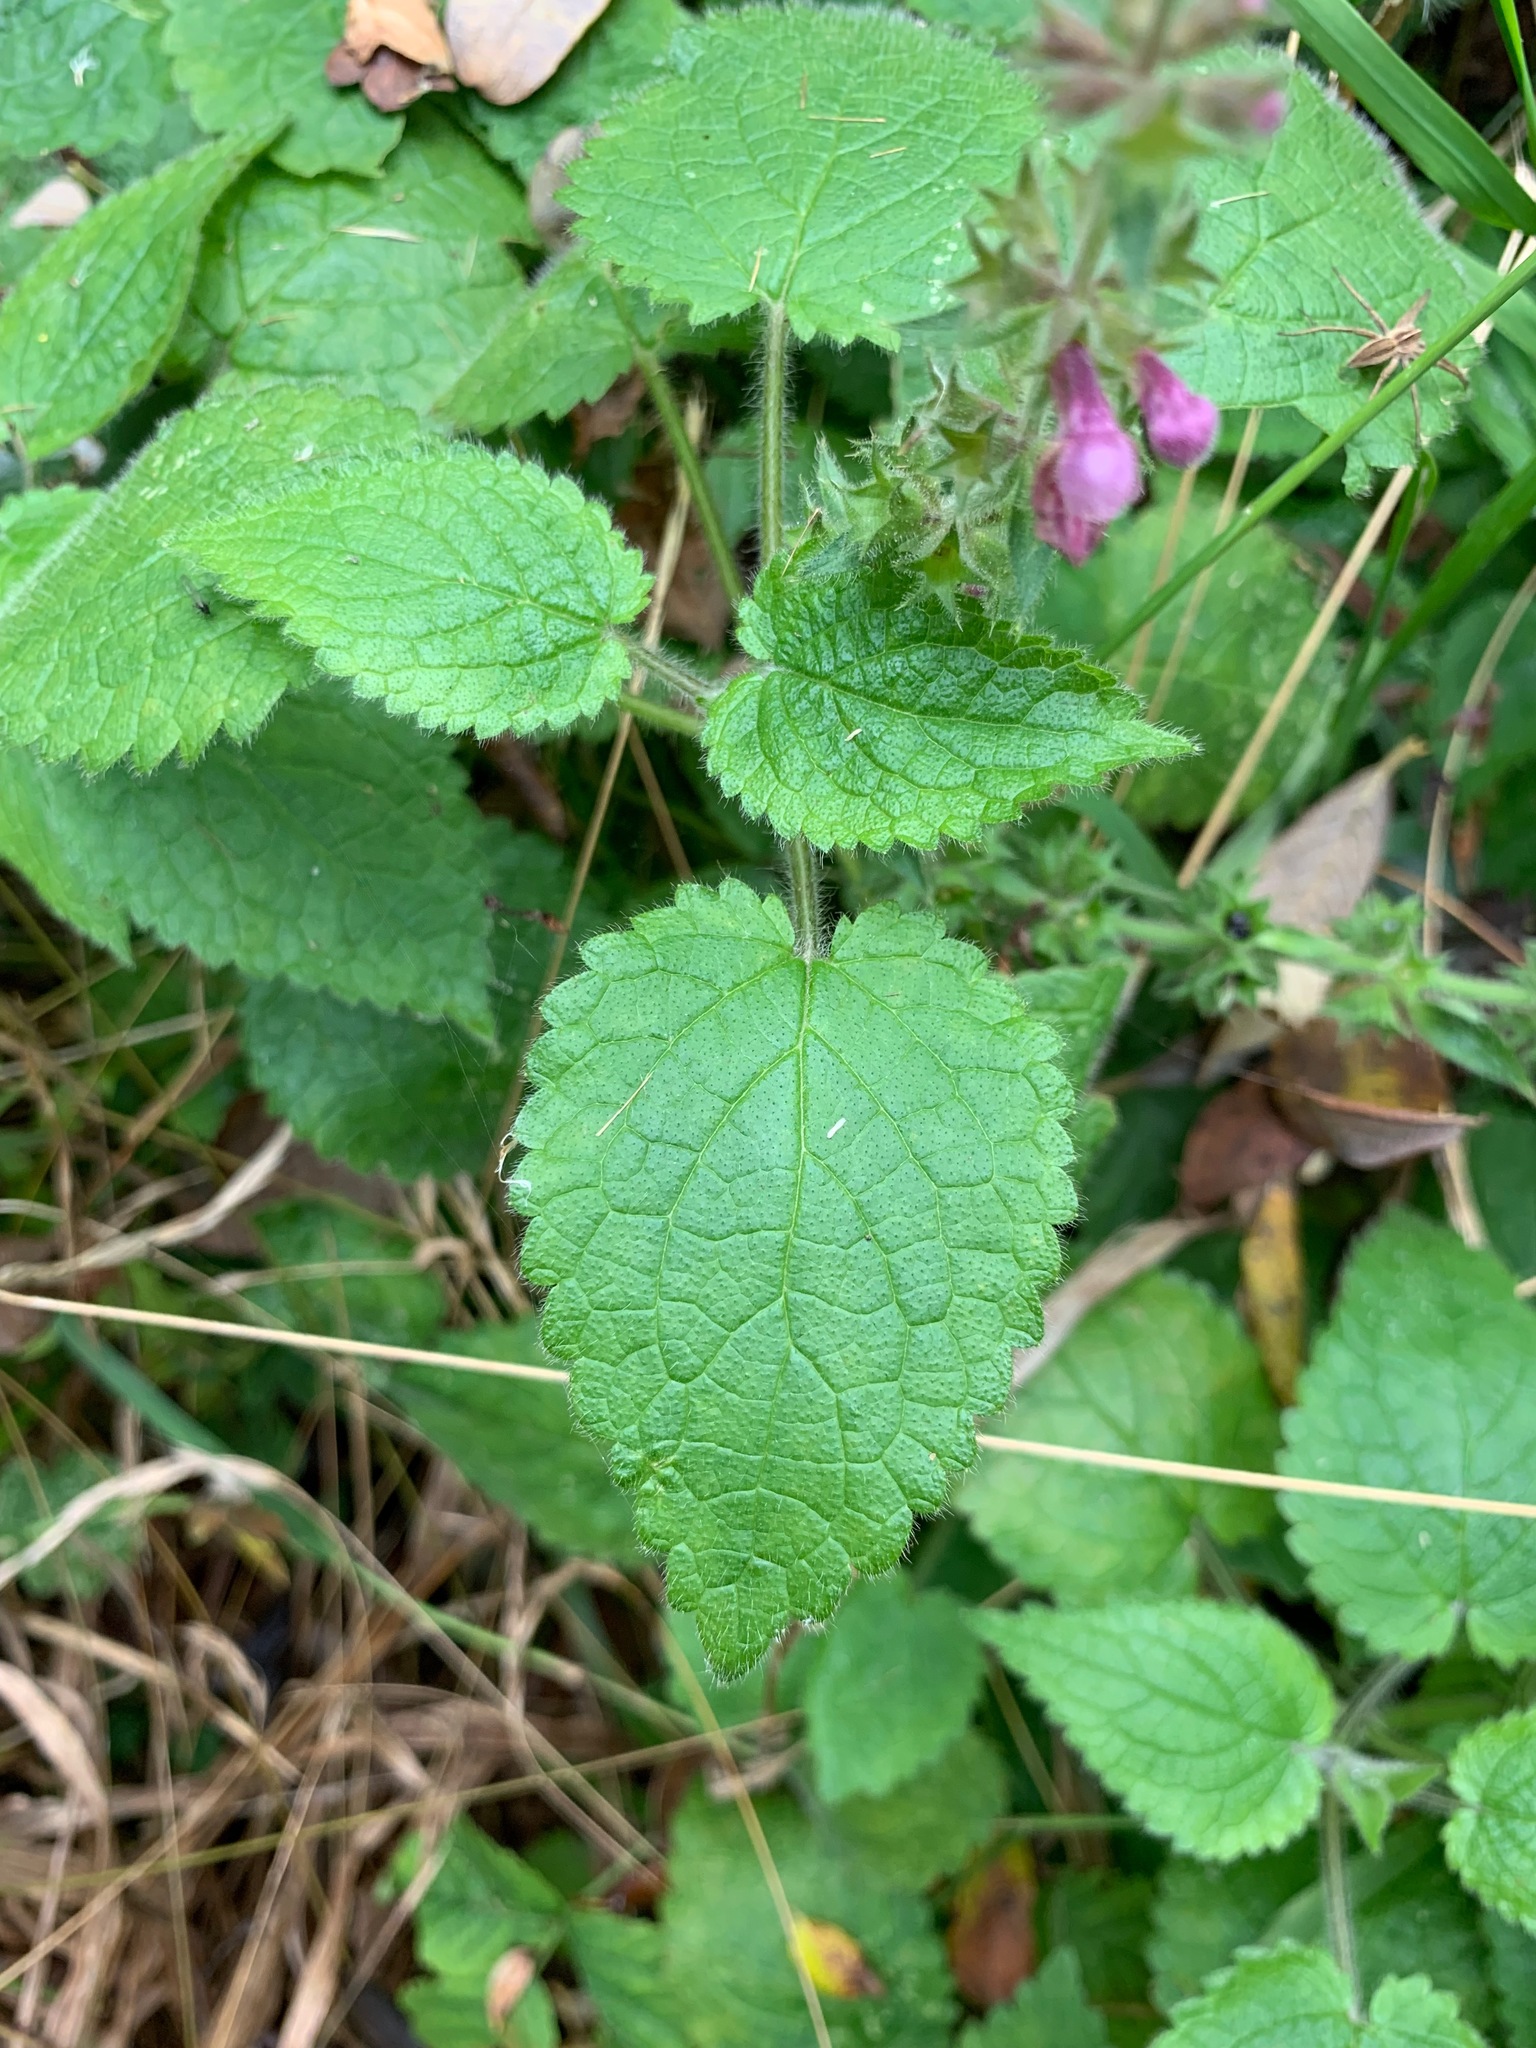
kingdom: Plantae
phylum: Tracheophyta
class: Magnoliopsida
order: Lamiales
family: Lamiaceae
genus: Stachys
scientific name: Stachys sylvatica
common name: Hedge woundwort
